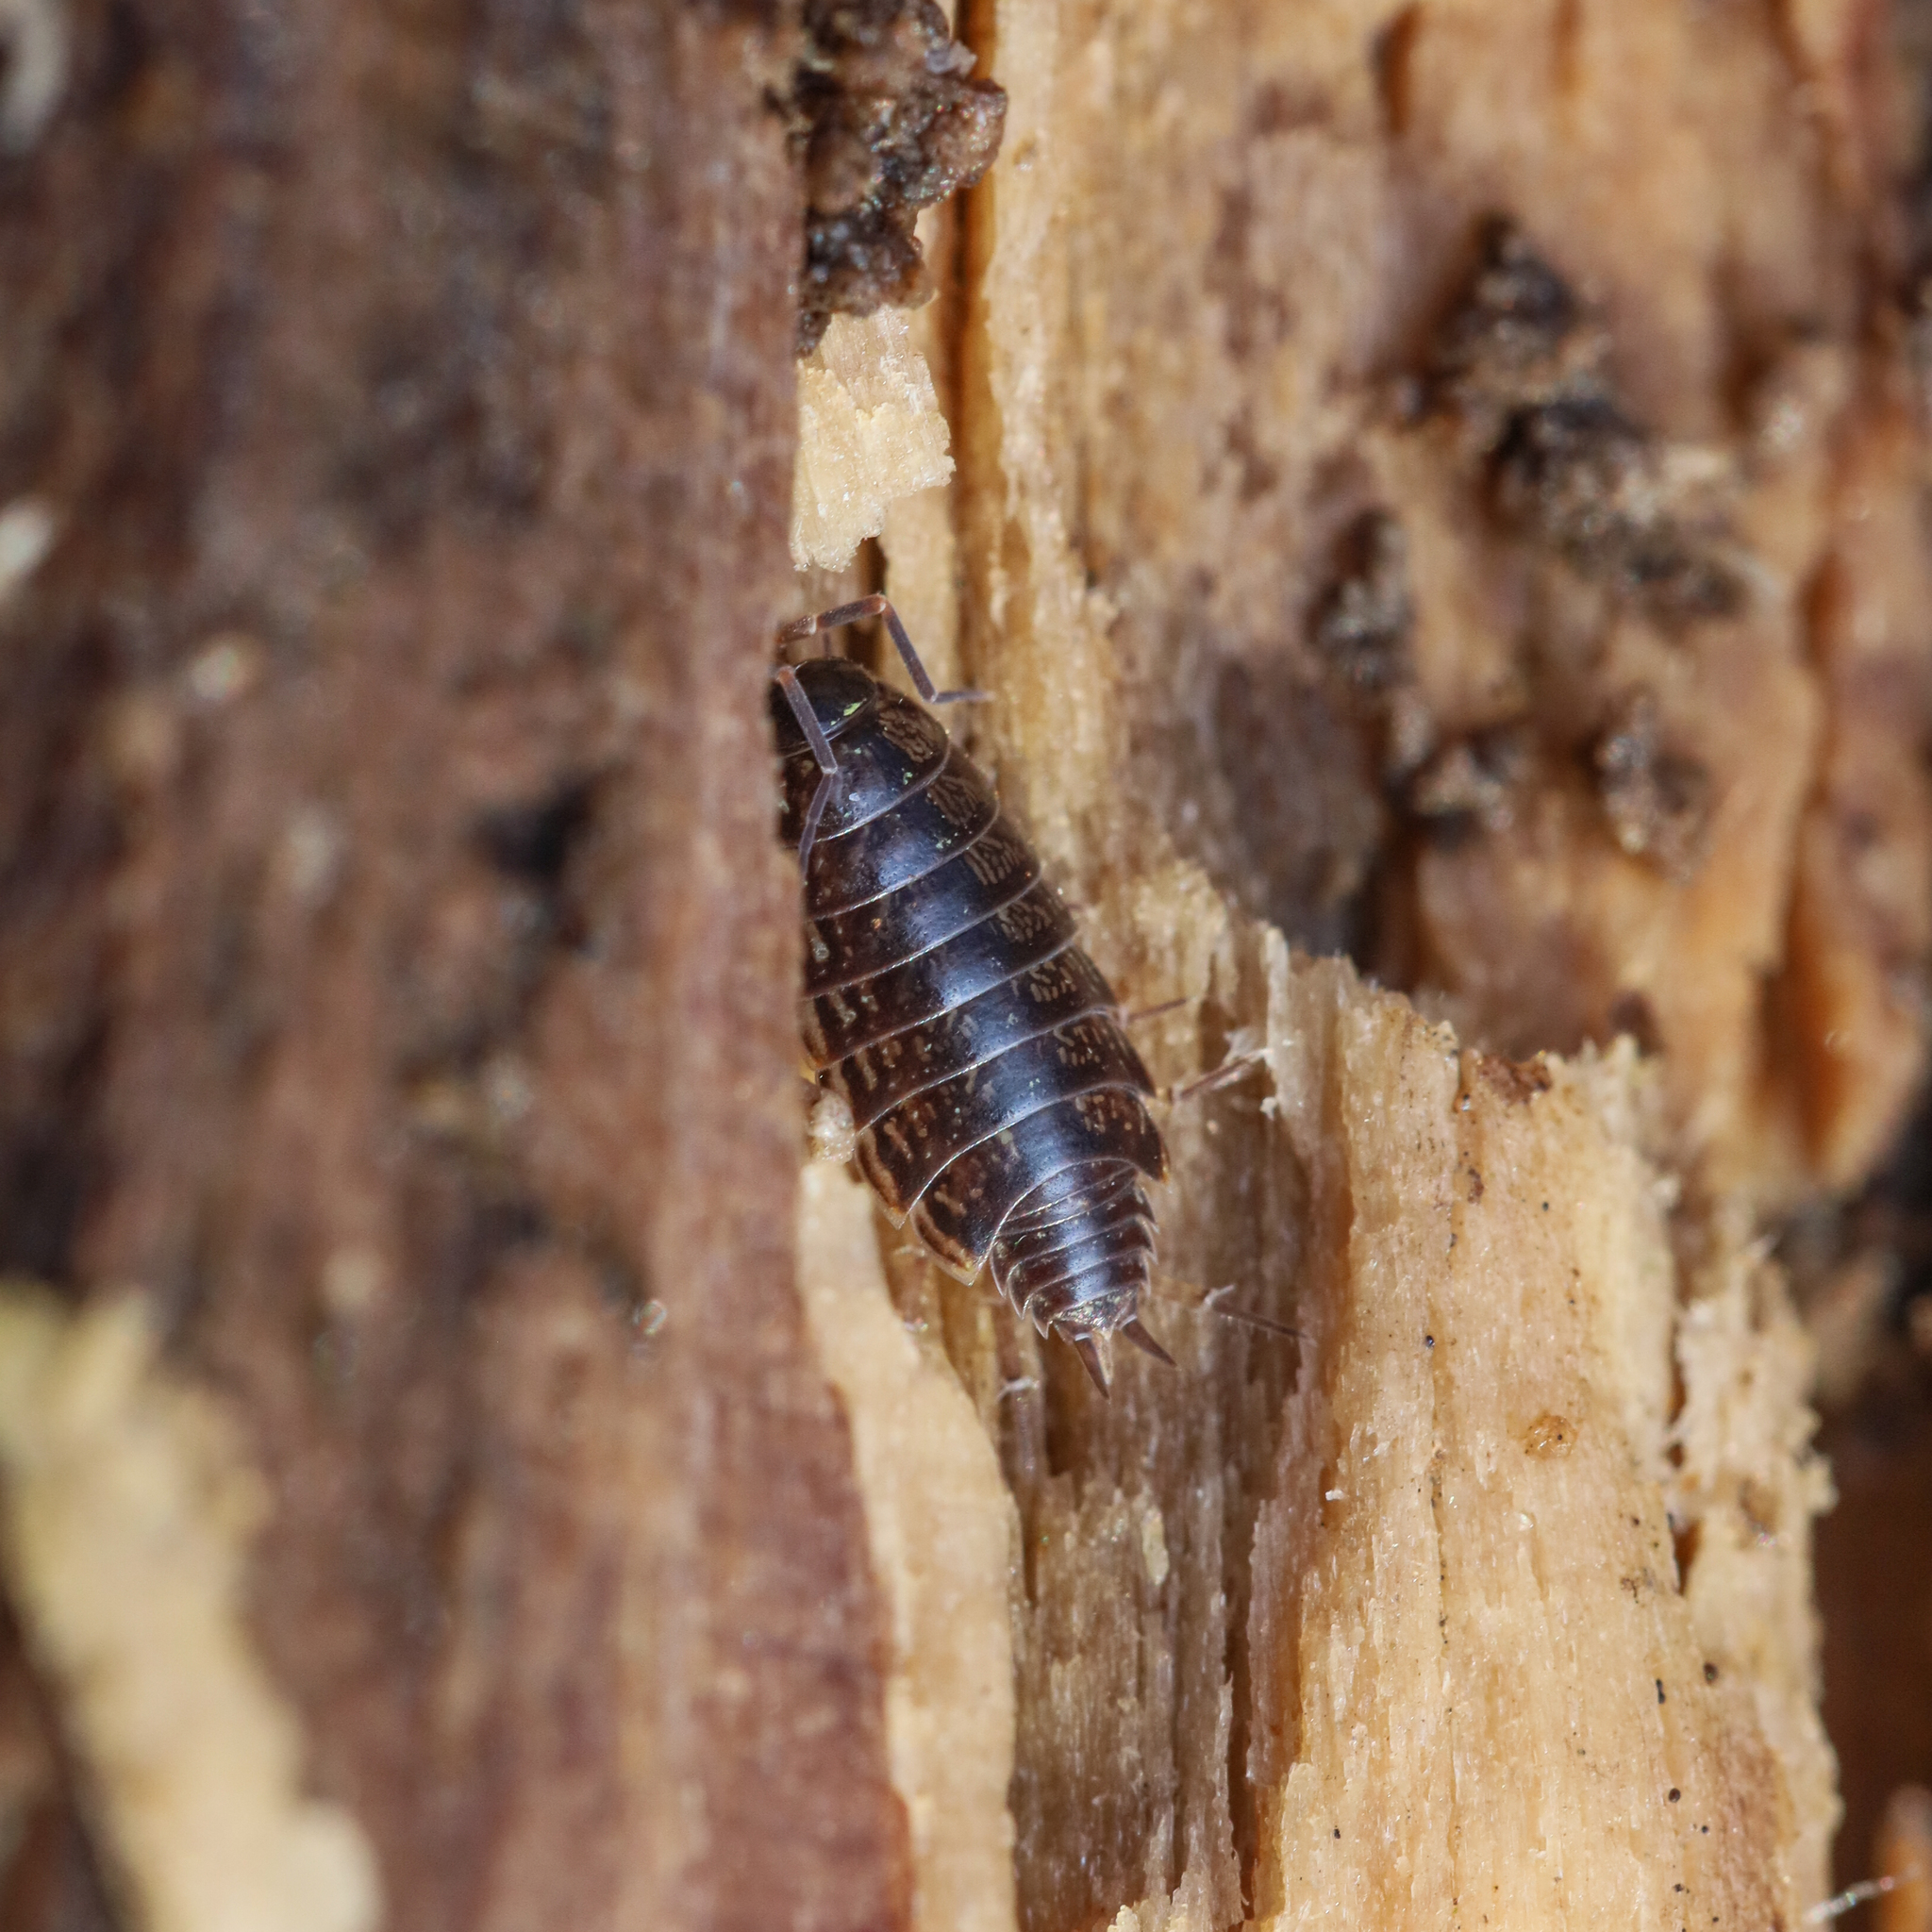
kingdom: Animalia
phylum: Arthropoda
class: Malacostraca
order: Isopoda
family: Philosciidae
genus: Philoscia
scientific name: Philoscia muscorum
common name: Common striped woodlouse
